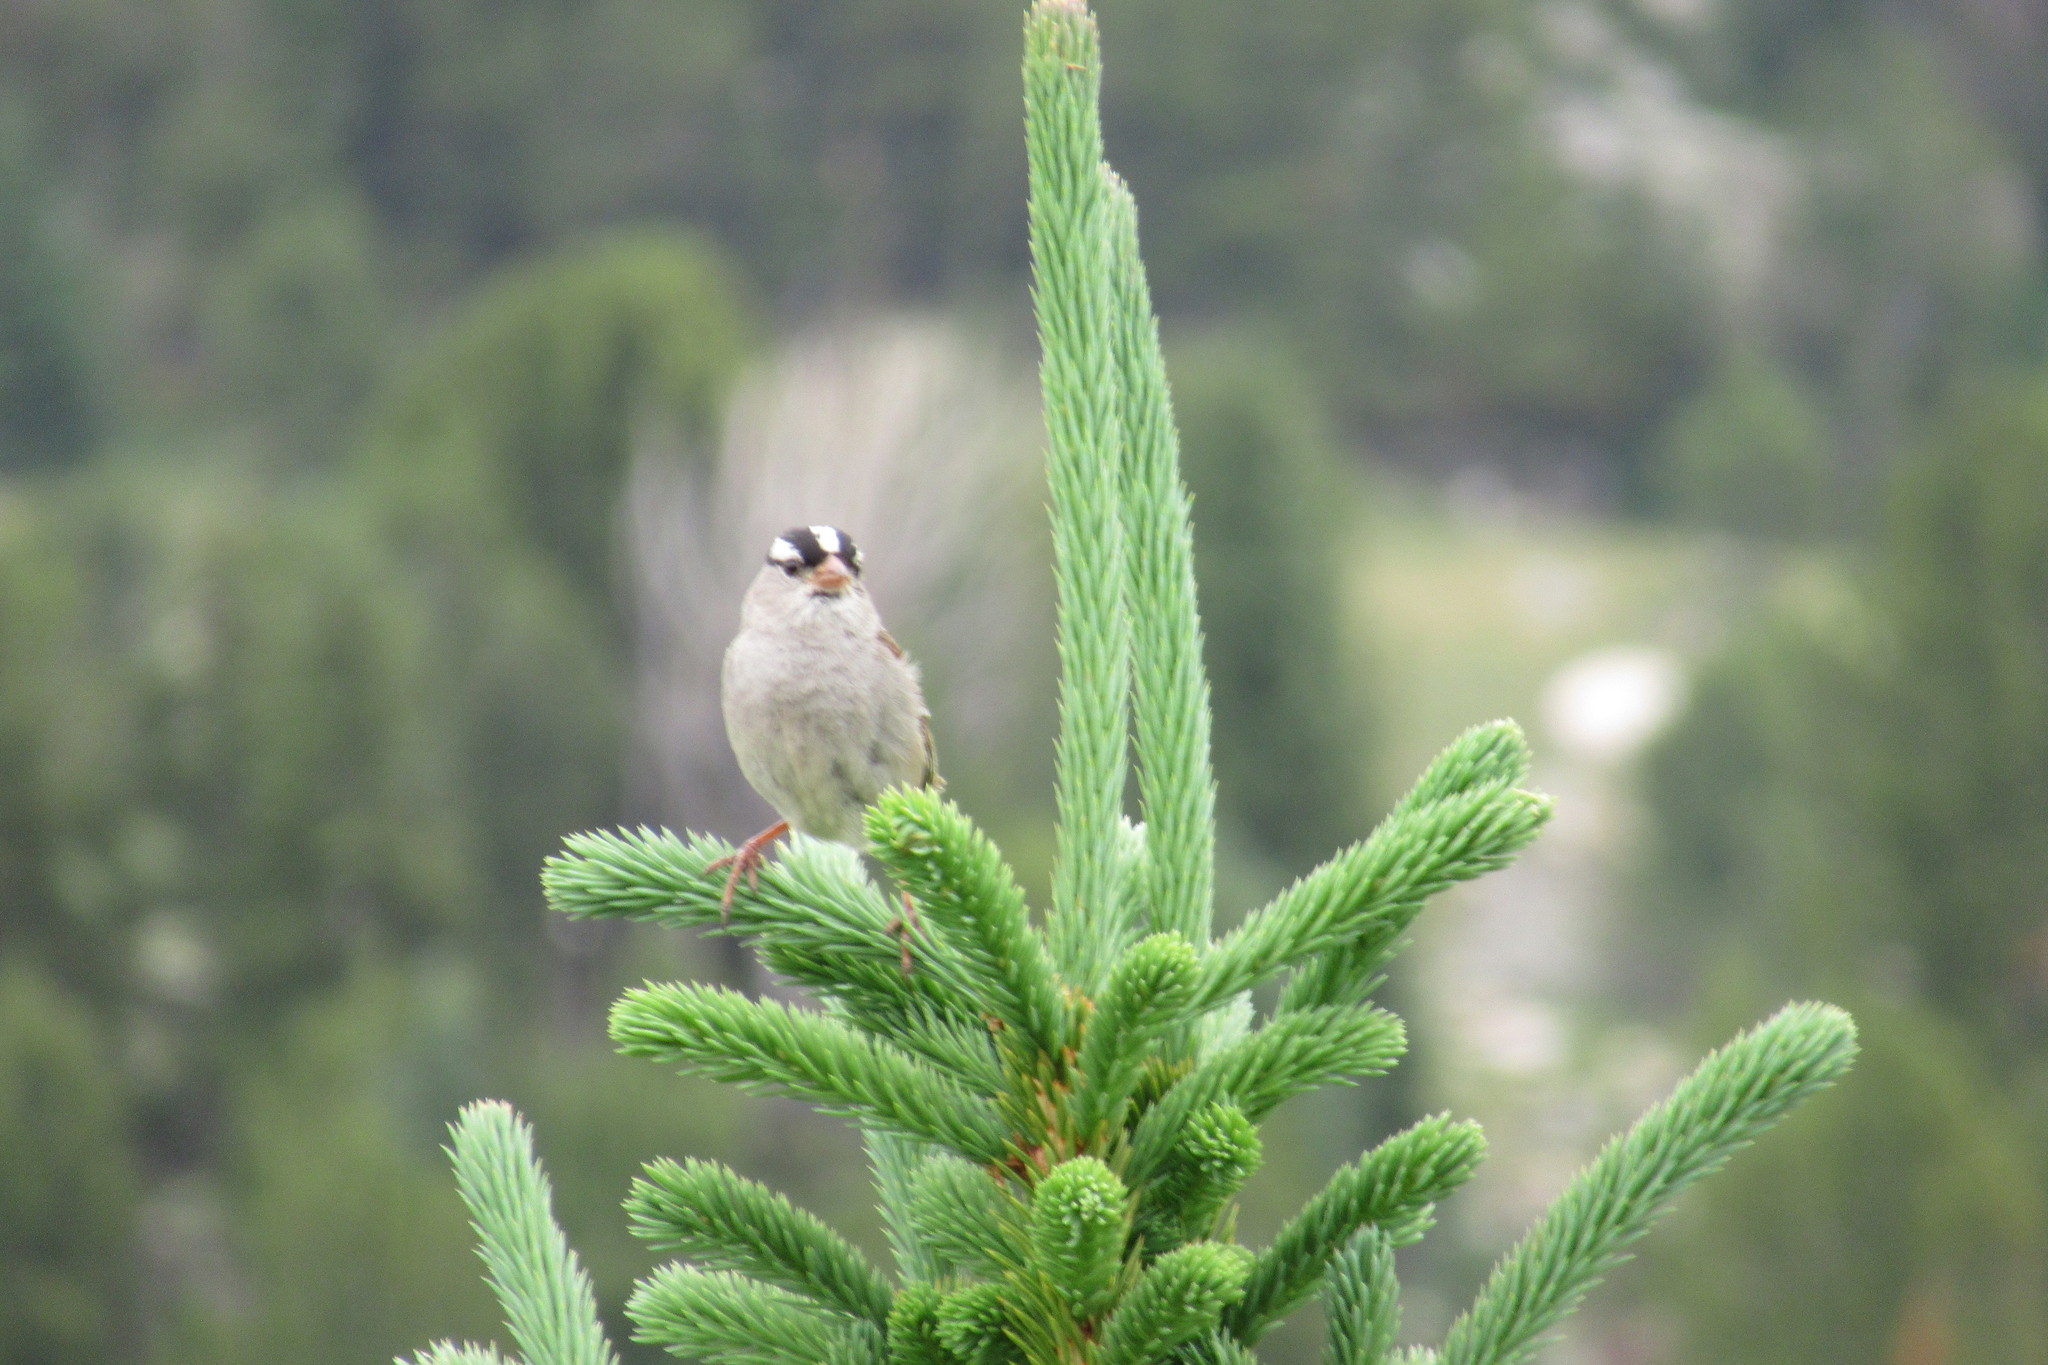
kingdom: Animalia
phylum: Chordata
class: Aves
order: Passeriformes
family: Passerellidae
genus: Zonotrichia
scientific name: Zonotrichia leucophrys
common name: White-crowned sparrow
